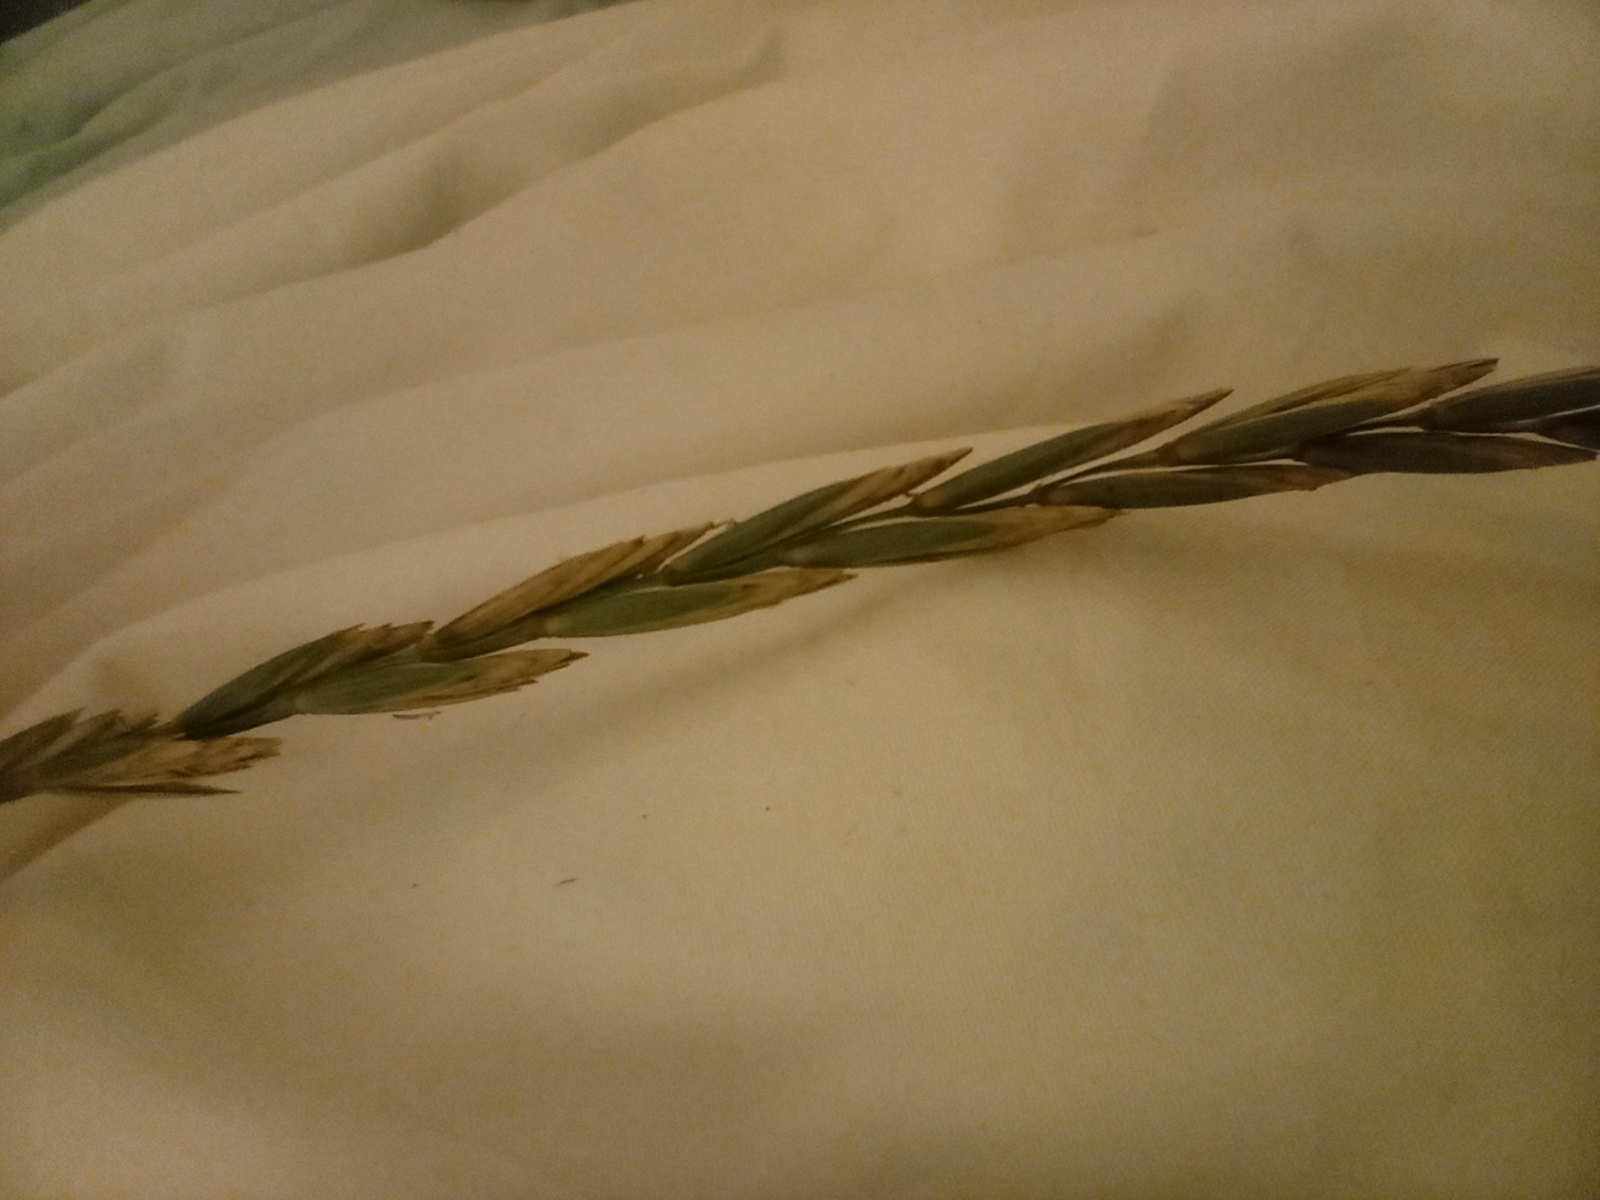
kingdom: Plantae
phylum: Tracheophyta
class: Liliopsida
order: Poales
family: Poaceae
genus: Elymus
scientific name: Elymus repens
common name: Quackgrass
